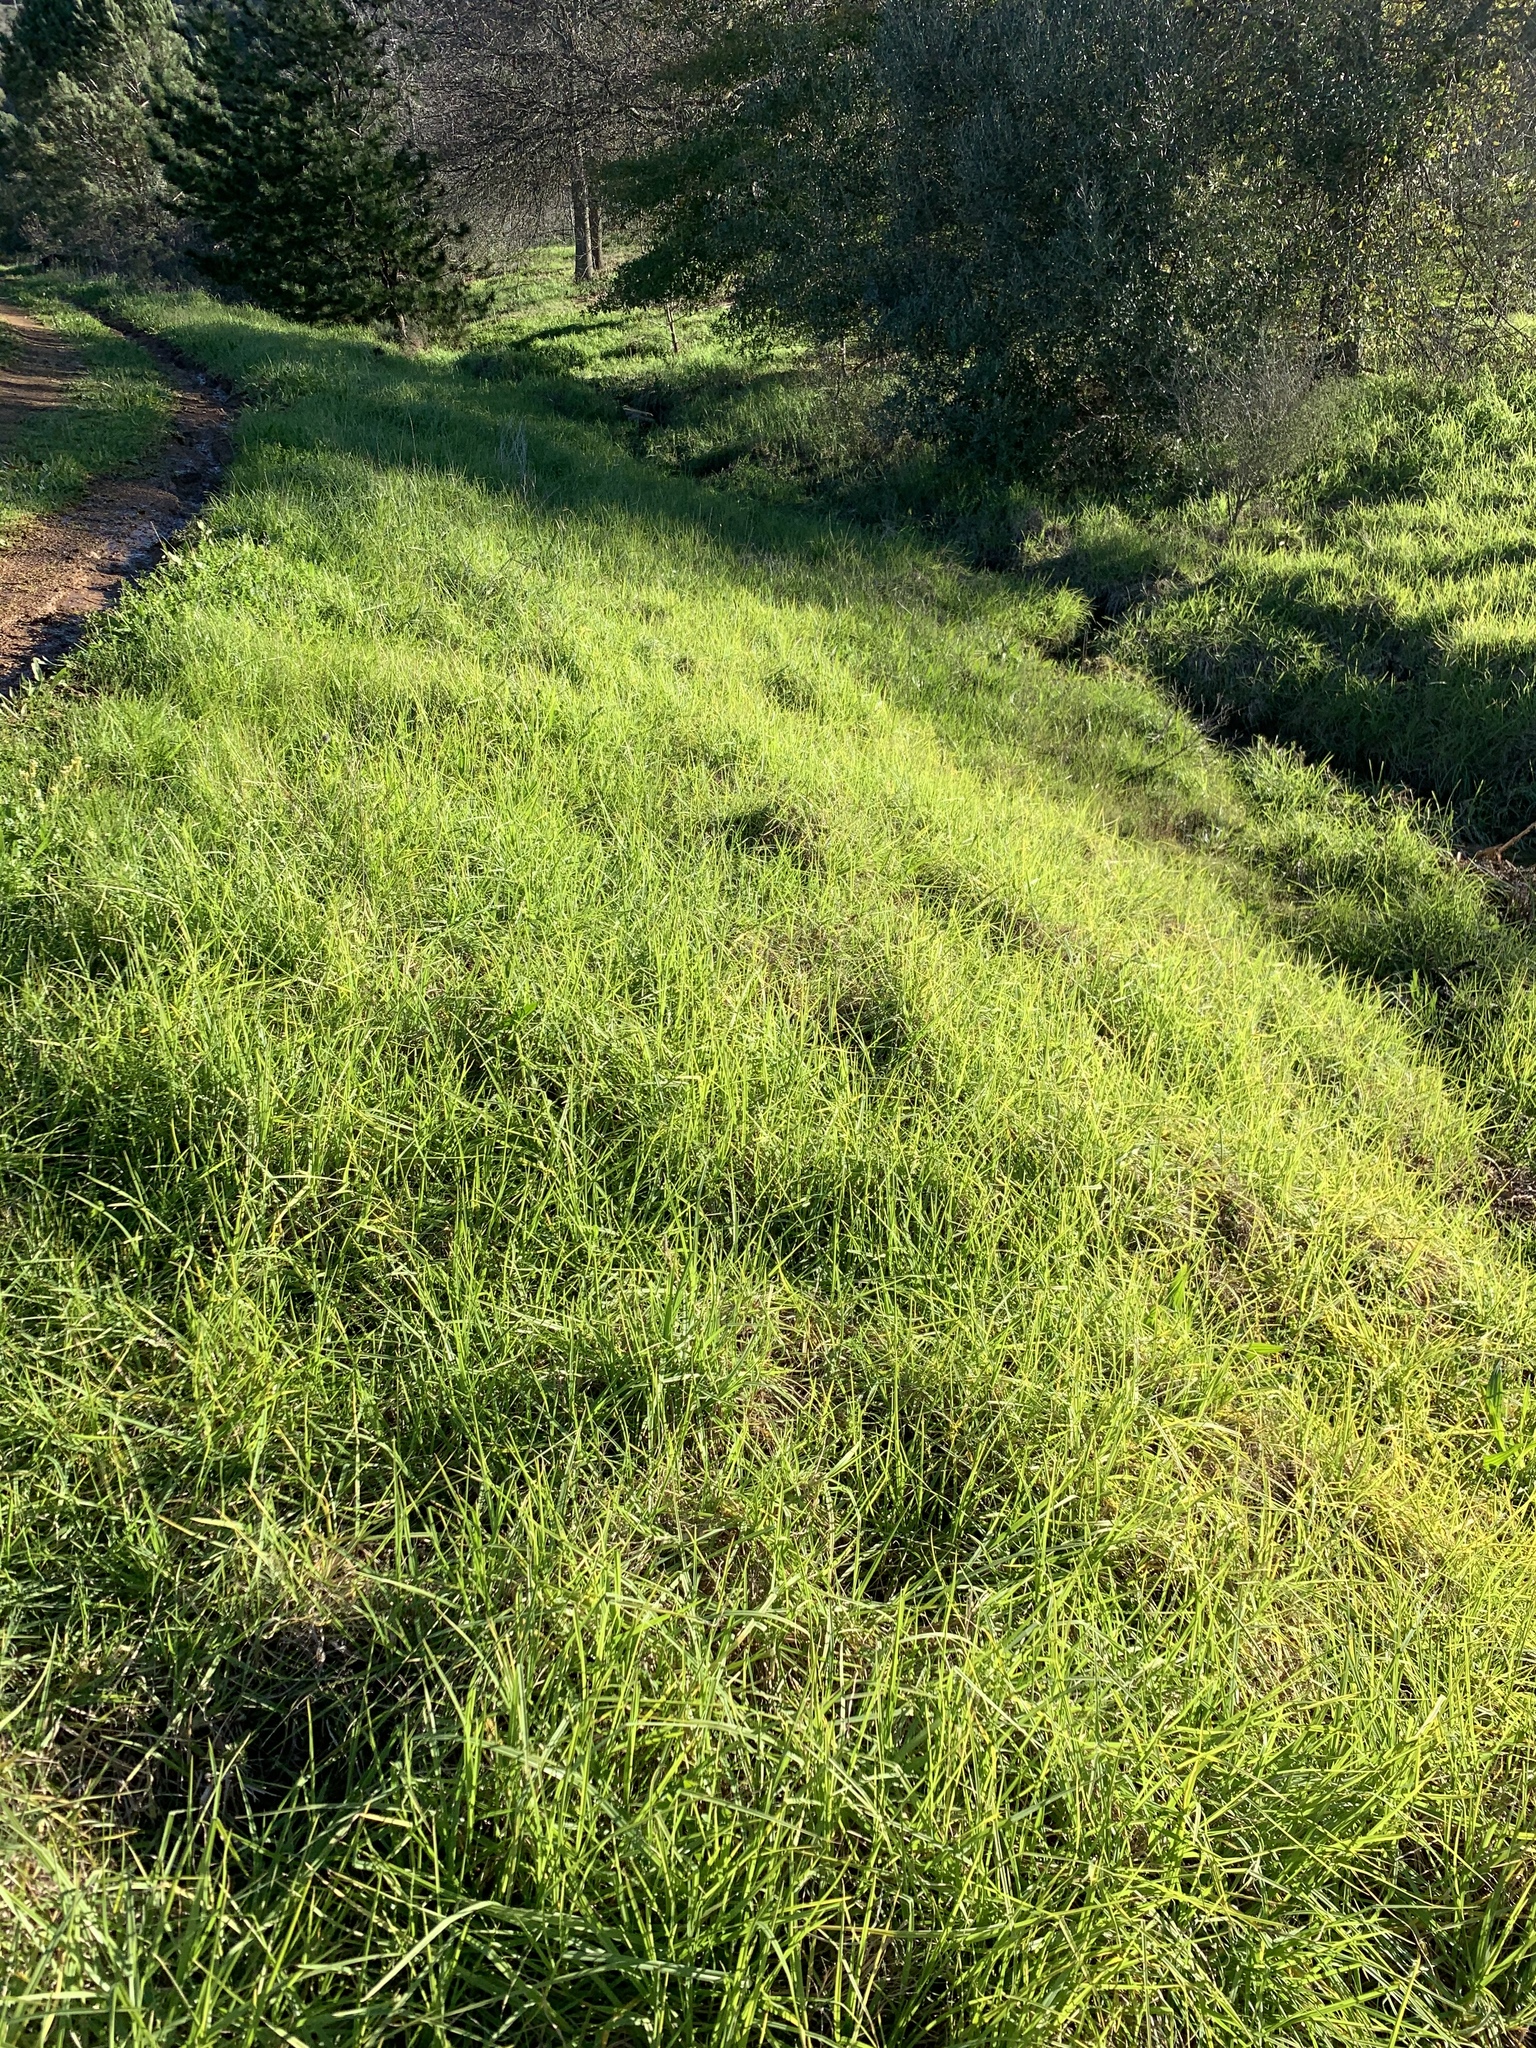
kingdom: Plantae
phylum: Tracheophyta
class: Liliopsida
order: Poales
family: Poaceae
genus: Cenchrus
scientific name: Cenchrus clandestinus
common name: Kikuyugrass
